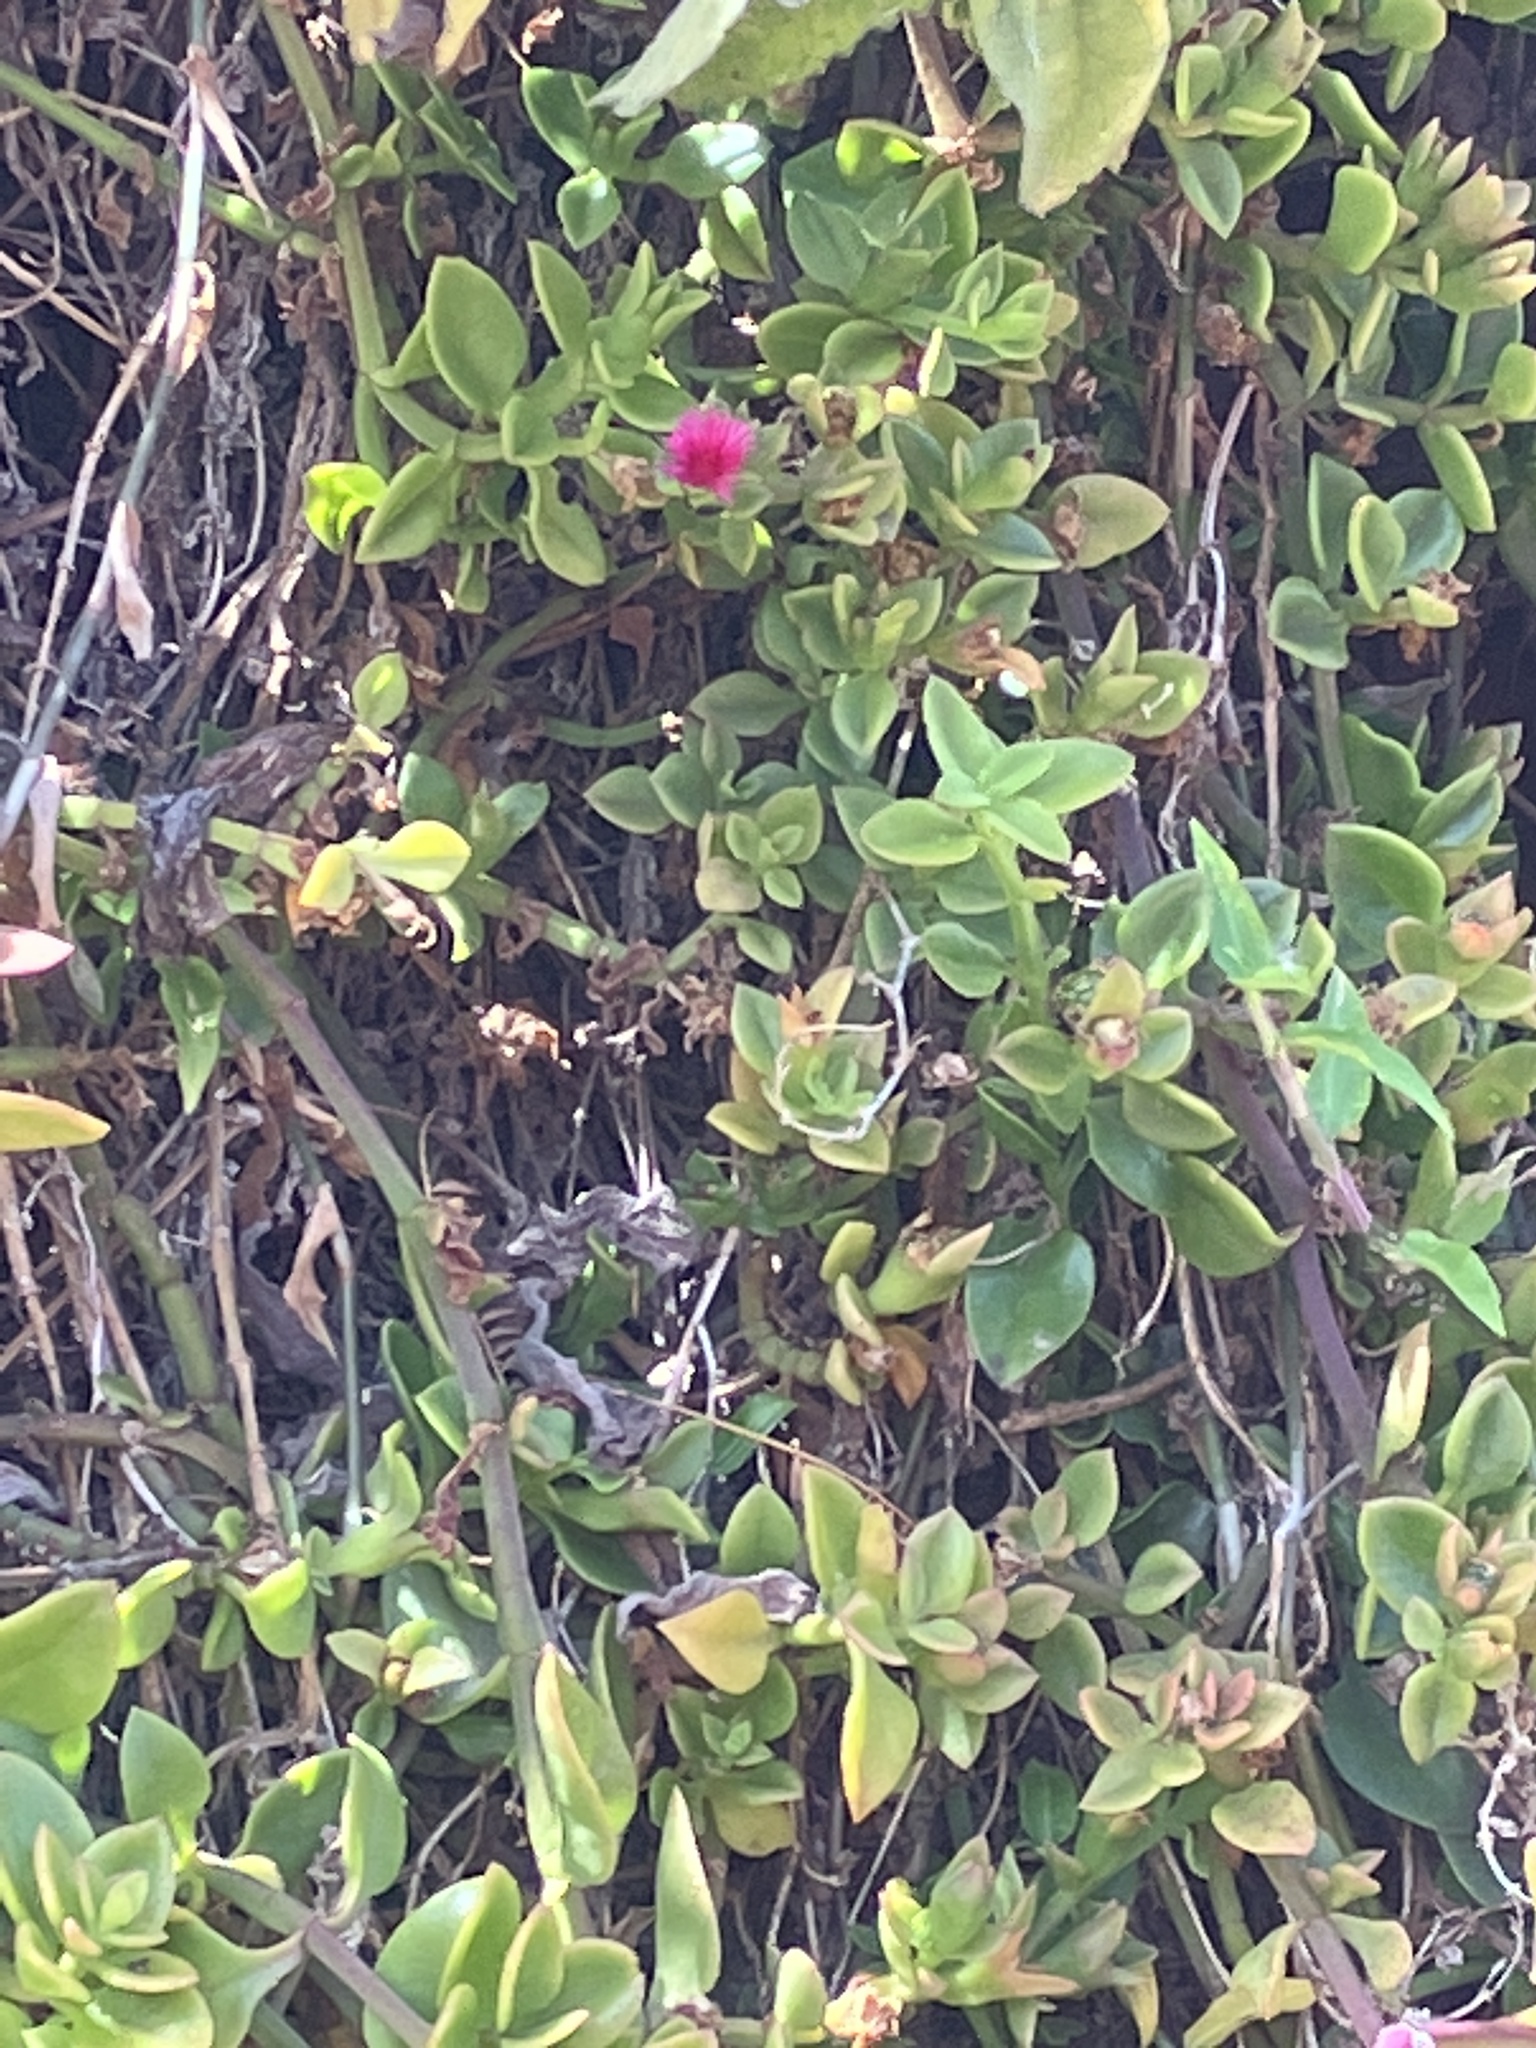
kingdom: Plantae
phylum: Tracheophyta
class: Magnoliopsida
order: Caryophyllales
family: Aizoaceae
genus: Mesembryanthemum
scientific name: Mesembryanthemum cordifolium
